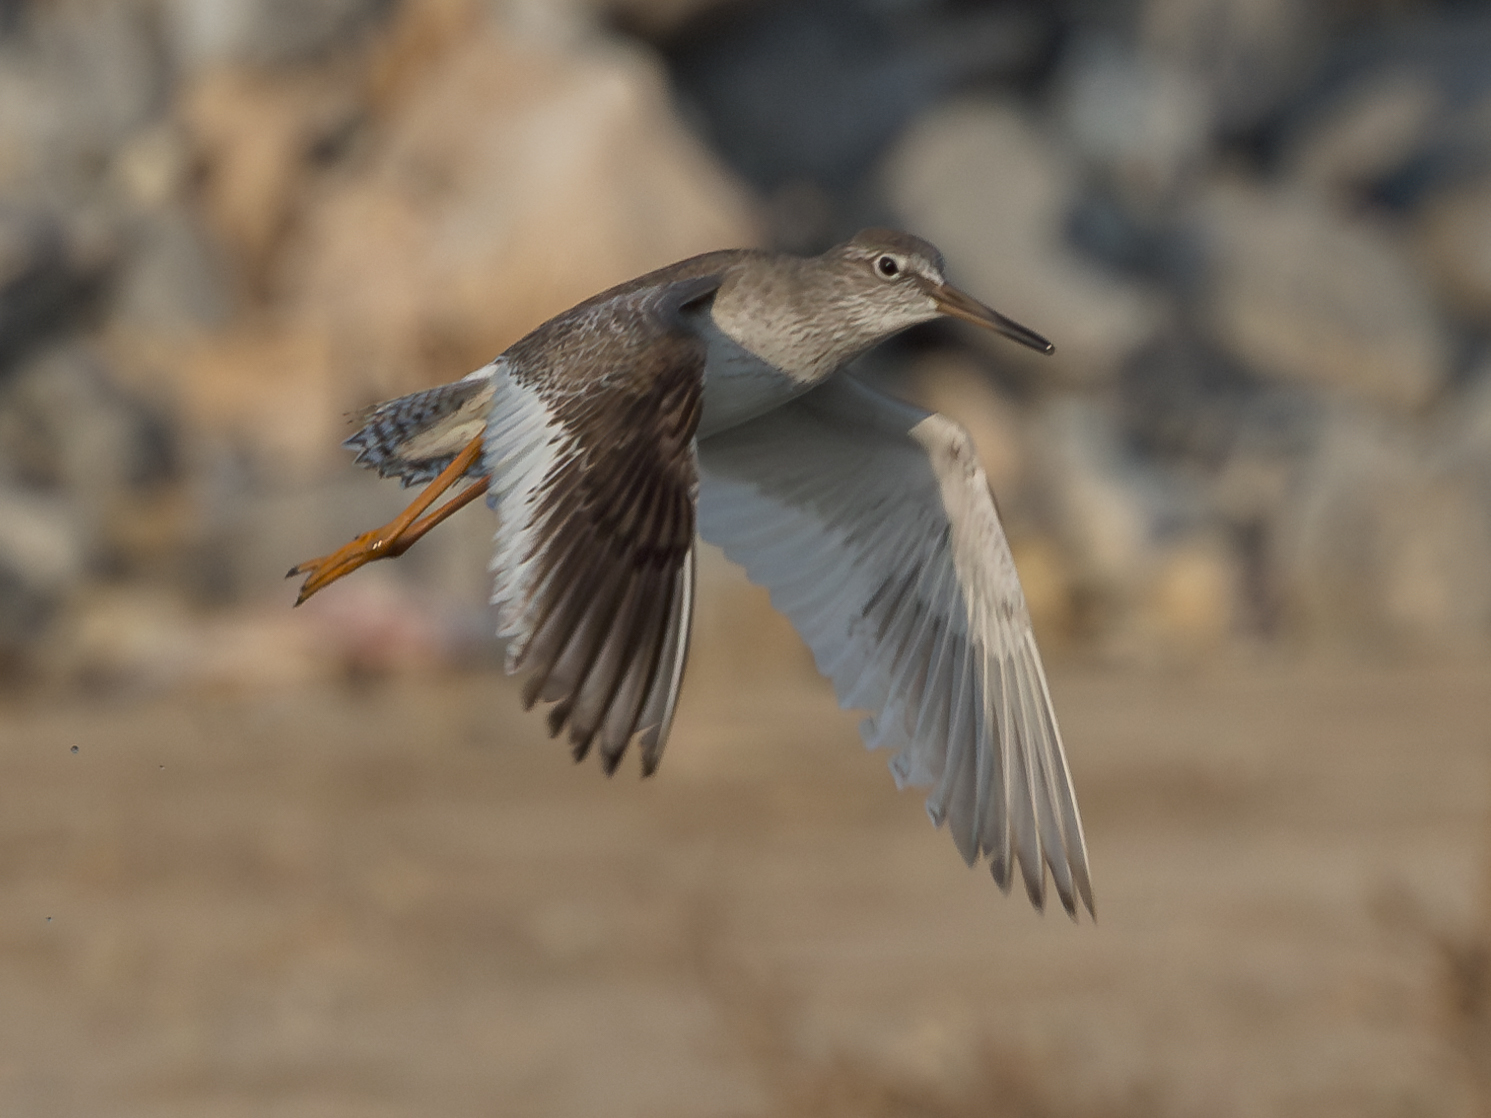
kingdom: Animalia
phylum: Chordata
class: Aves
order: Charadriiformes
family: Scolopacidae
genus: Tringa
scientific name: Tringa totanus
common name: Common redshank
